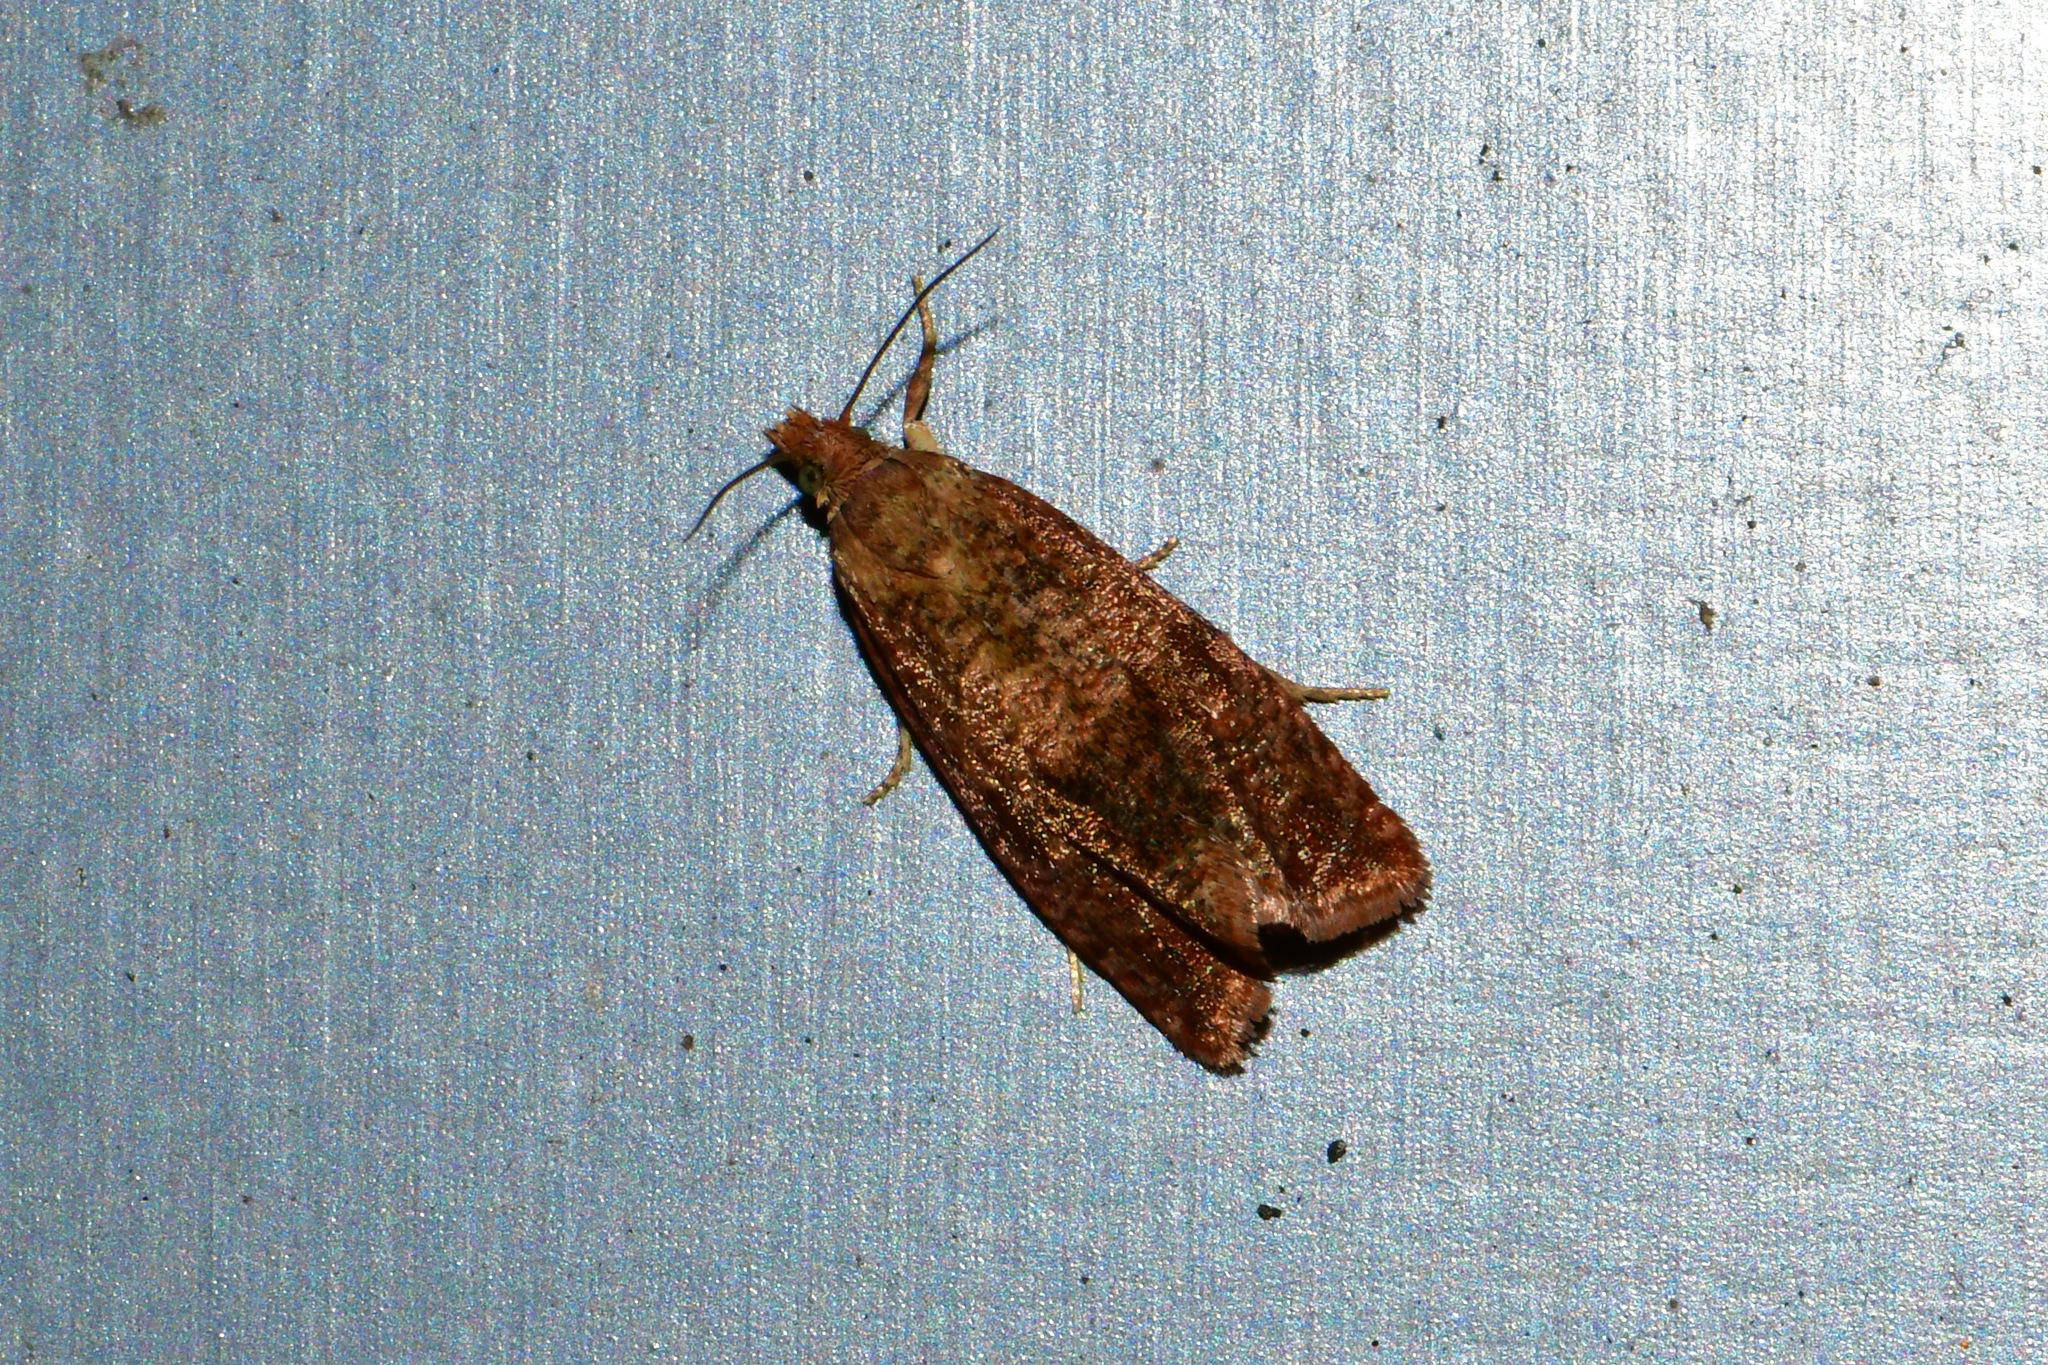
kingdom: Animalia
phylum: Arthropoda
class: Insecta
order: Lepidoptera
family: Tortricidae
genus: Celypha
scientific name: Celypha striana
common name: Barred marble
